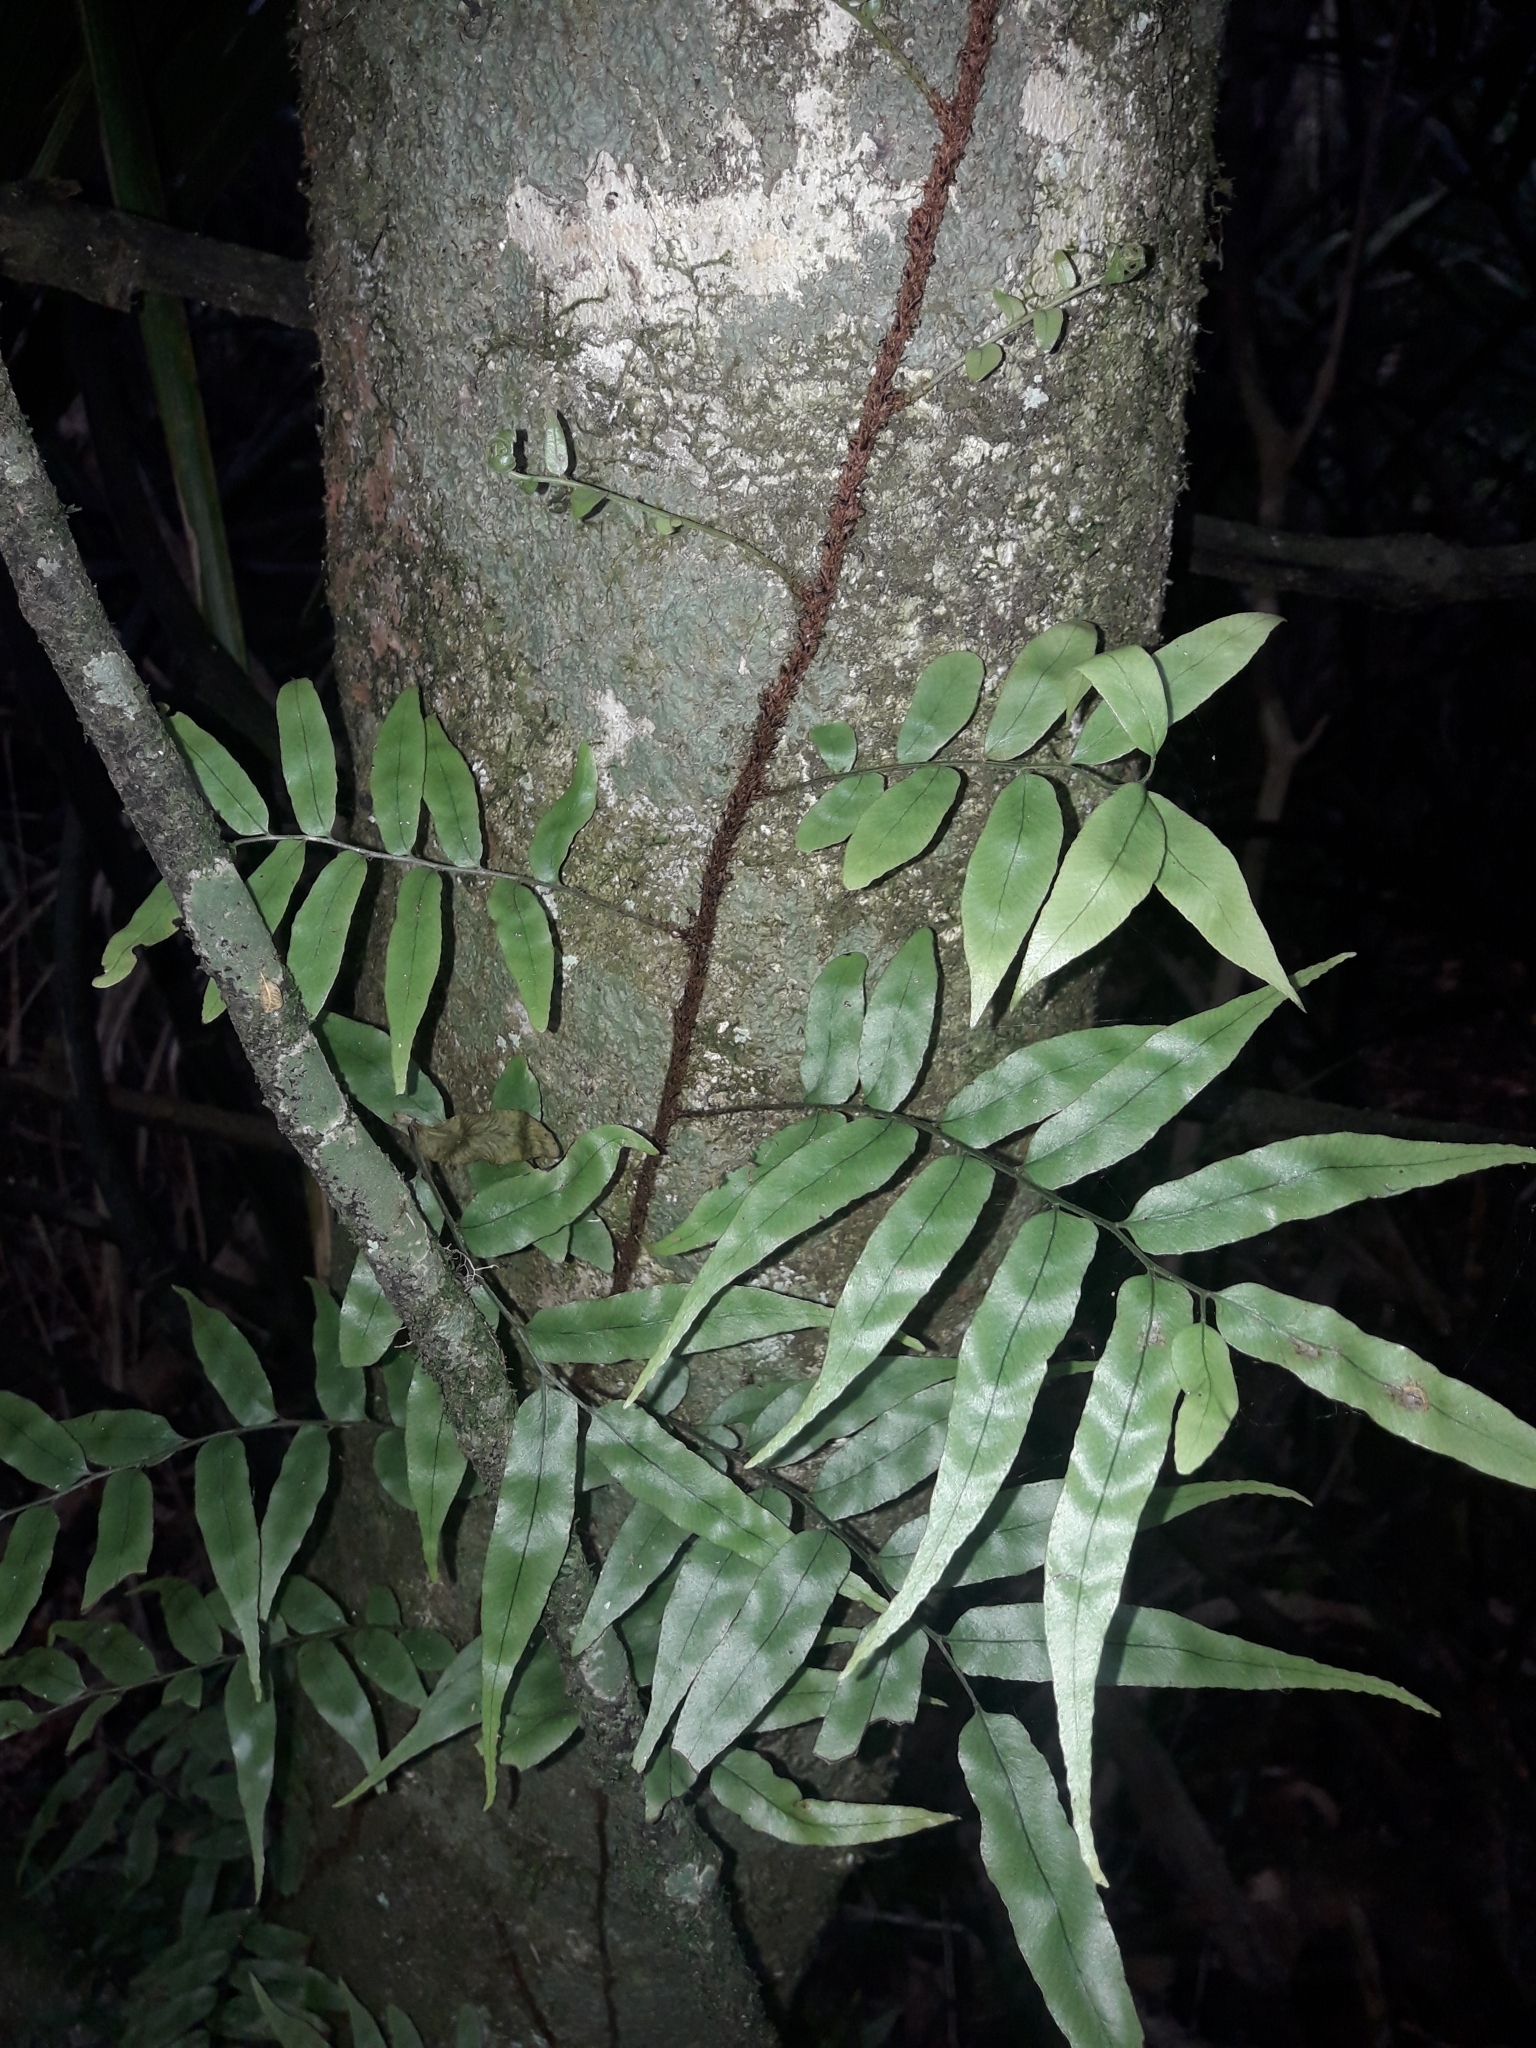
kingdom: Plantae
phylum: Tracheophyta
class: Polypodiopsida
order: Polypodiales
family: Tectariaceae
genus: Arthropteris
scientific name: Arthropteris tenella
